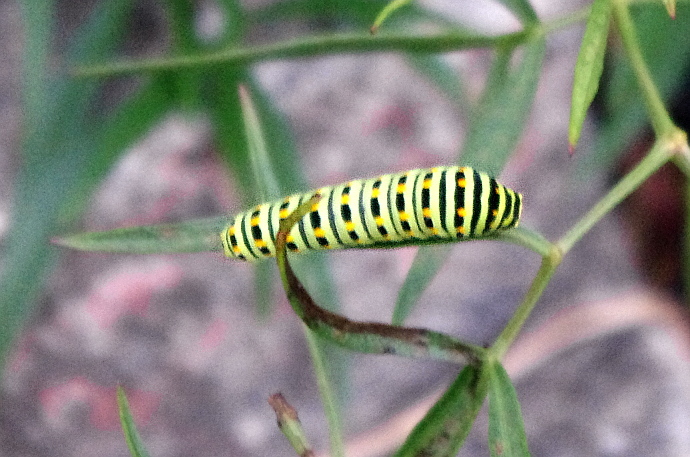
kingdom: Animalia
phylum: Arthropoda
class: Insecta
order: Lepidoptera
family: Papilionidae
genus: Papilio
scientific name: Papilio machaon
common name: Swallowtail
